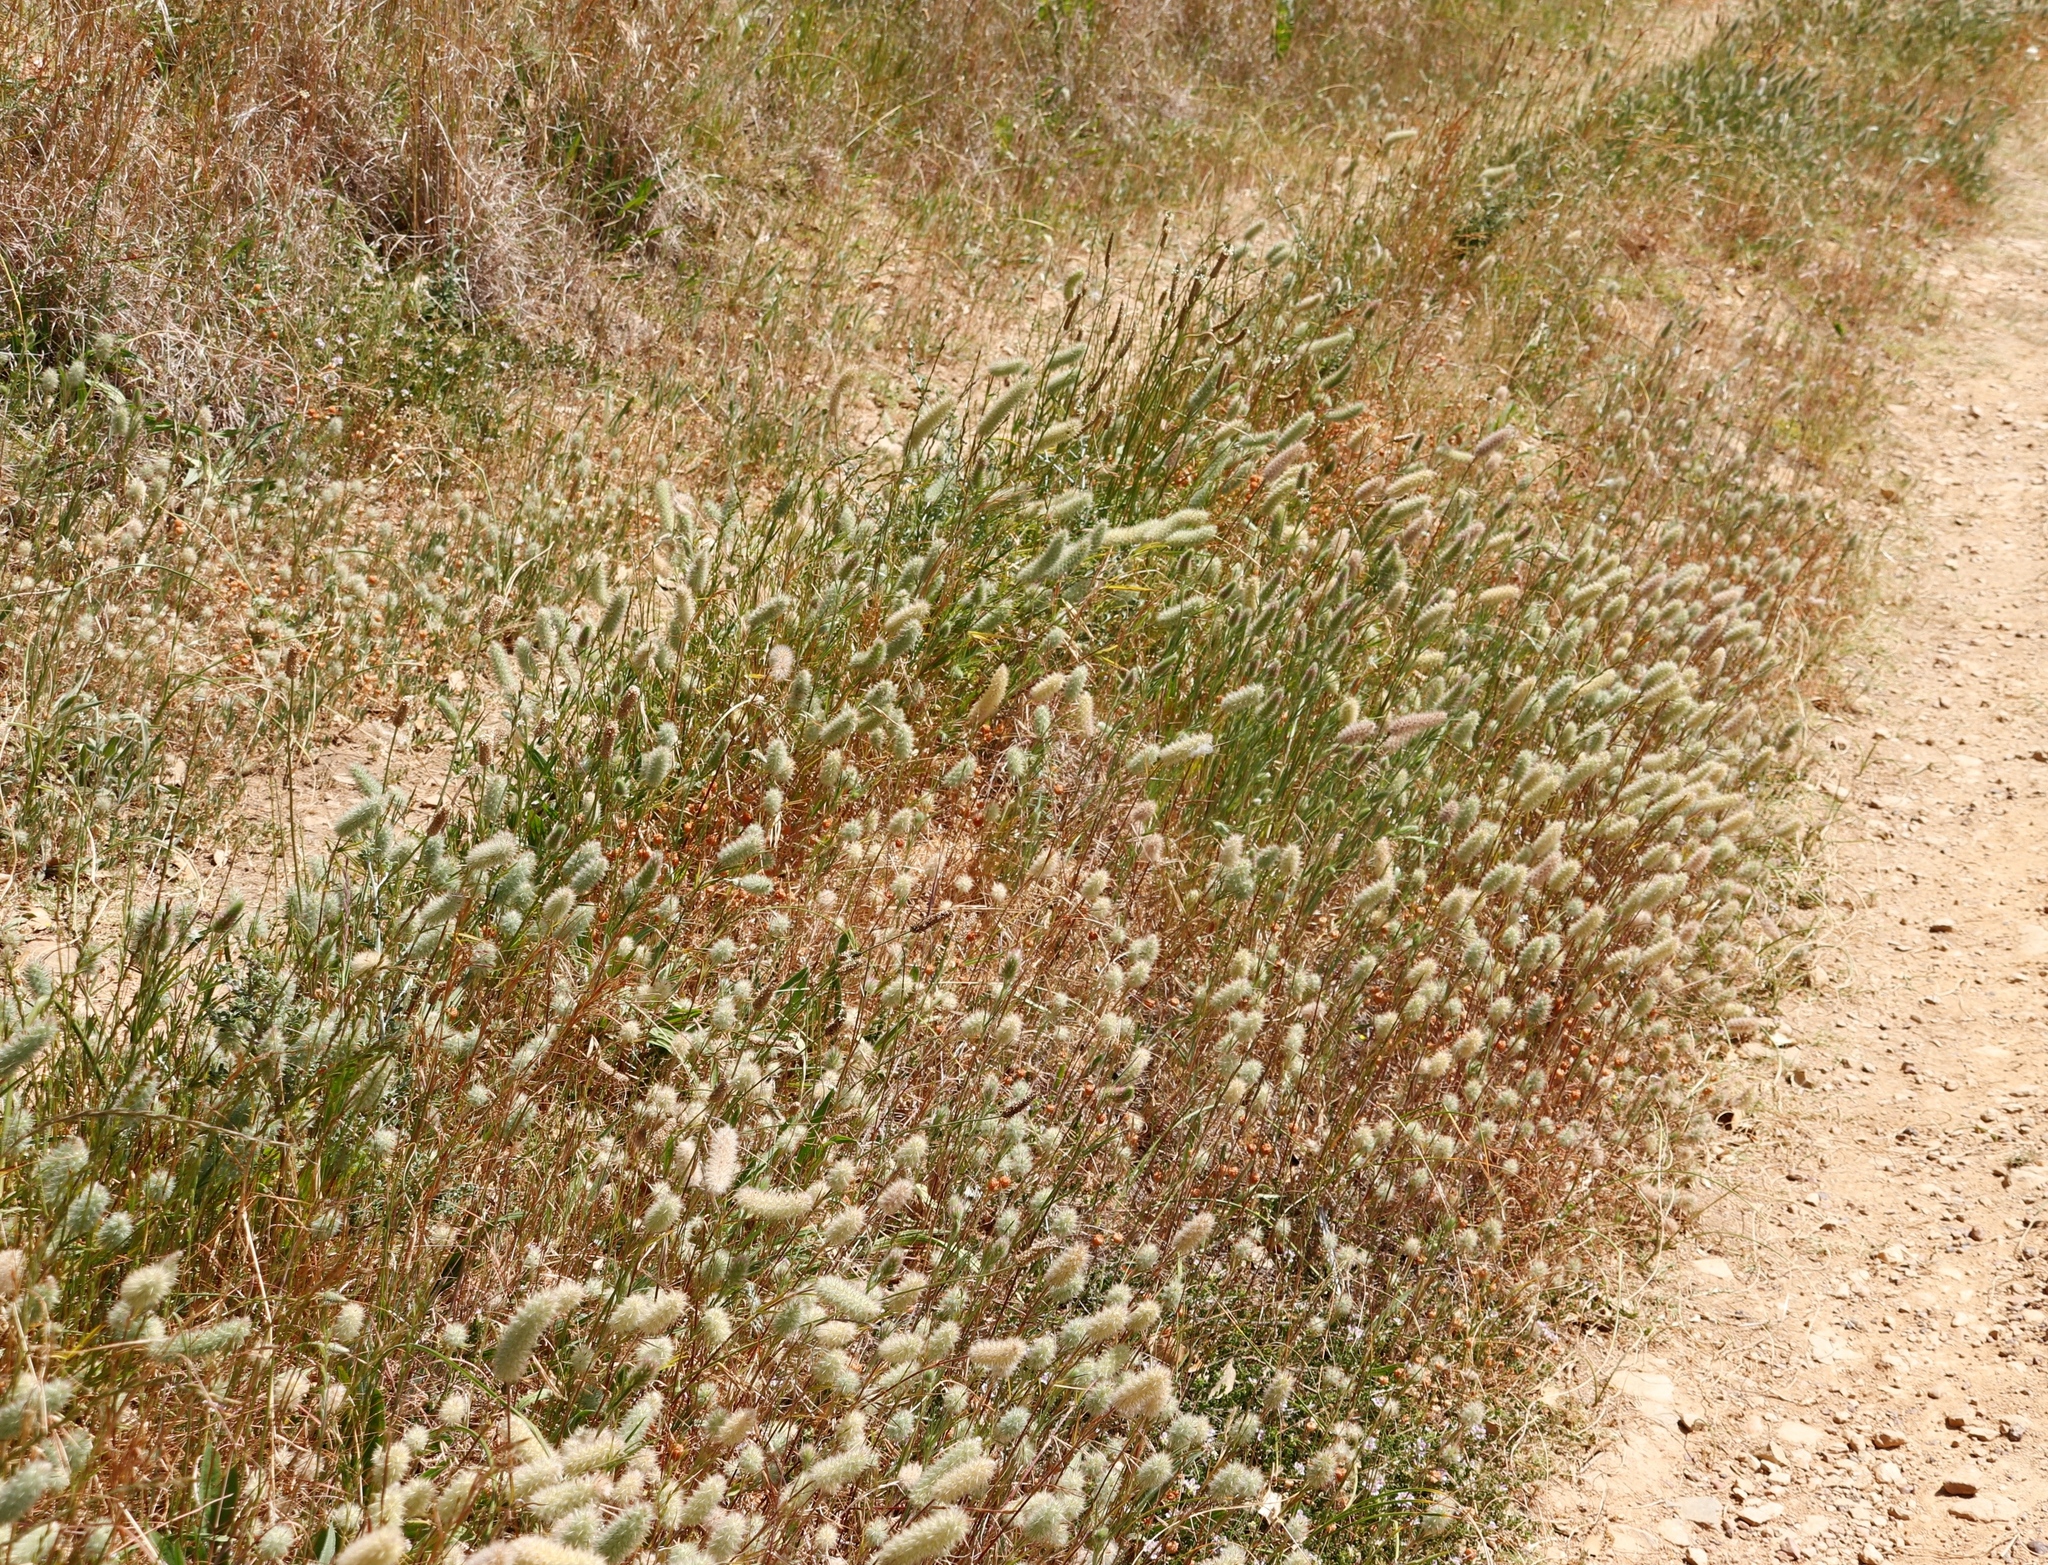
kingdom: Plantae
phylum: Tracheophyta
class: Magnoliopsida
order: Fabales
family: Fabaceae
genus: Trifolium
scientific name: Trifolium angustifolium
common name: Narrow clover
